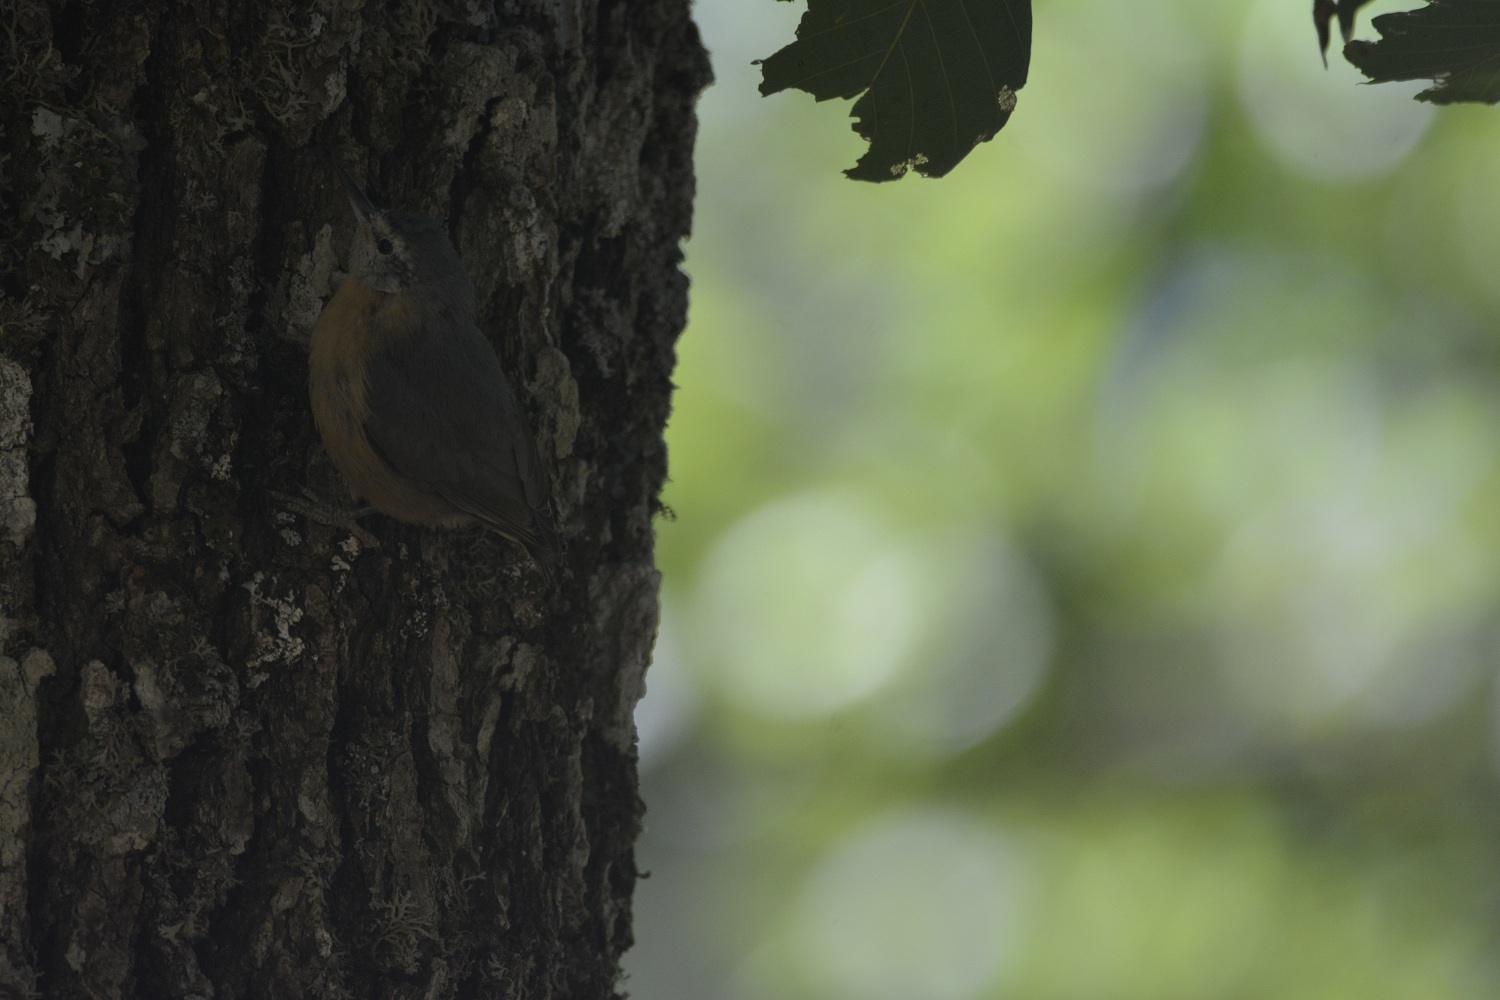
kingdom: Animalia
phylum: Chordata
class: Aves
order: Passeriformes
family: Sittidae
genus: Sitta
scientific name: Sitta ledanti
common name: Algerian nuthatch
